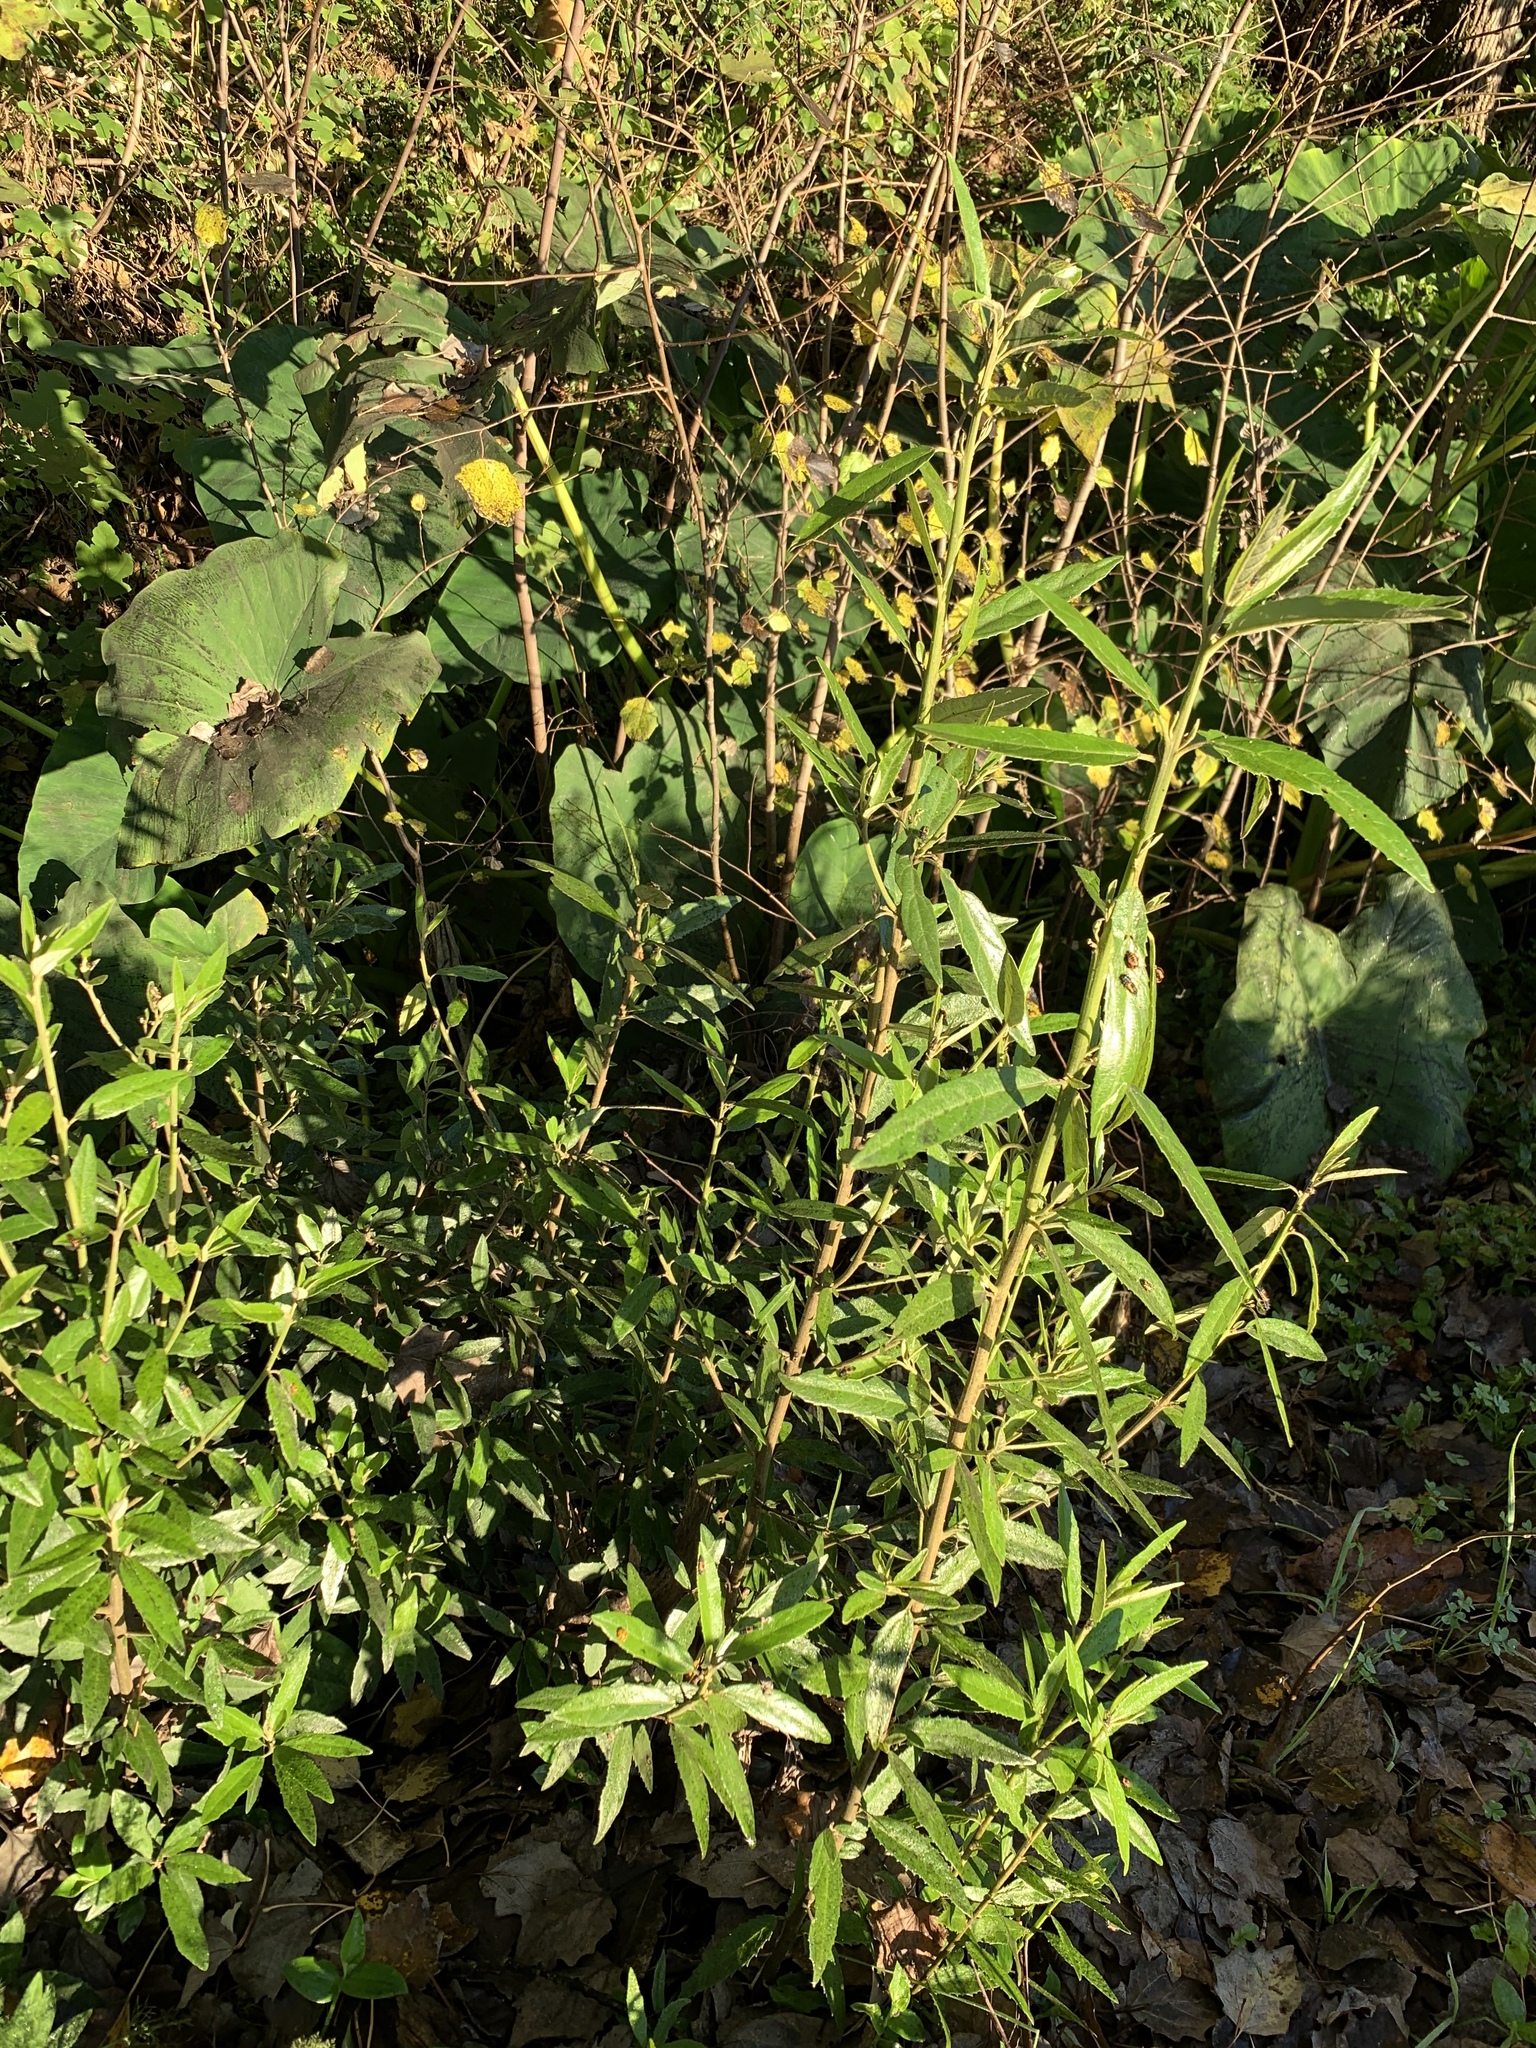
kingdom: Plantae
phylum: Tracheophyta
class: Magnoliopsida
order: Malpighiales
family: Achariaceae
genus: Kiggelaria
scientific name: Kiggelaria africana
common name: Wild peach
